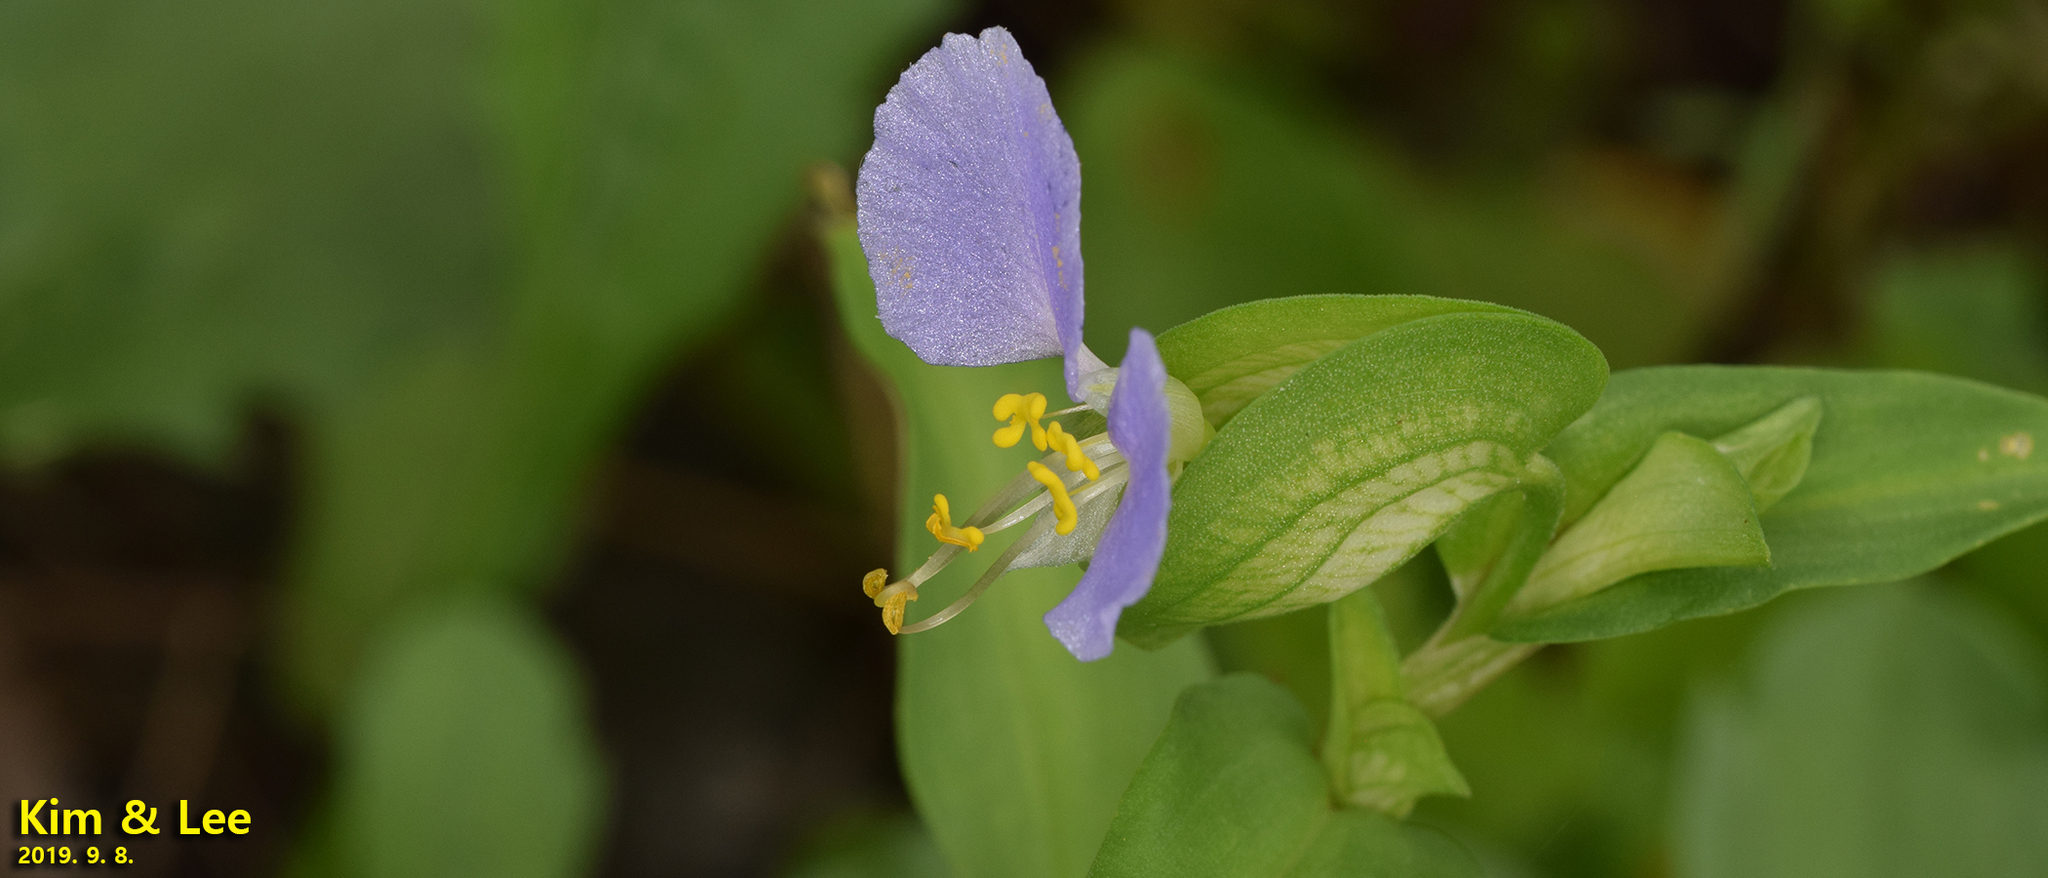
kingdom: Plantae
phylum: Tracheophyta
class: Liliopsida
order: Commelinales
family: Commelinaceae
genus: Commelina
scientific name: Commelina communis
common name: Asiatic dayflower
